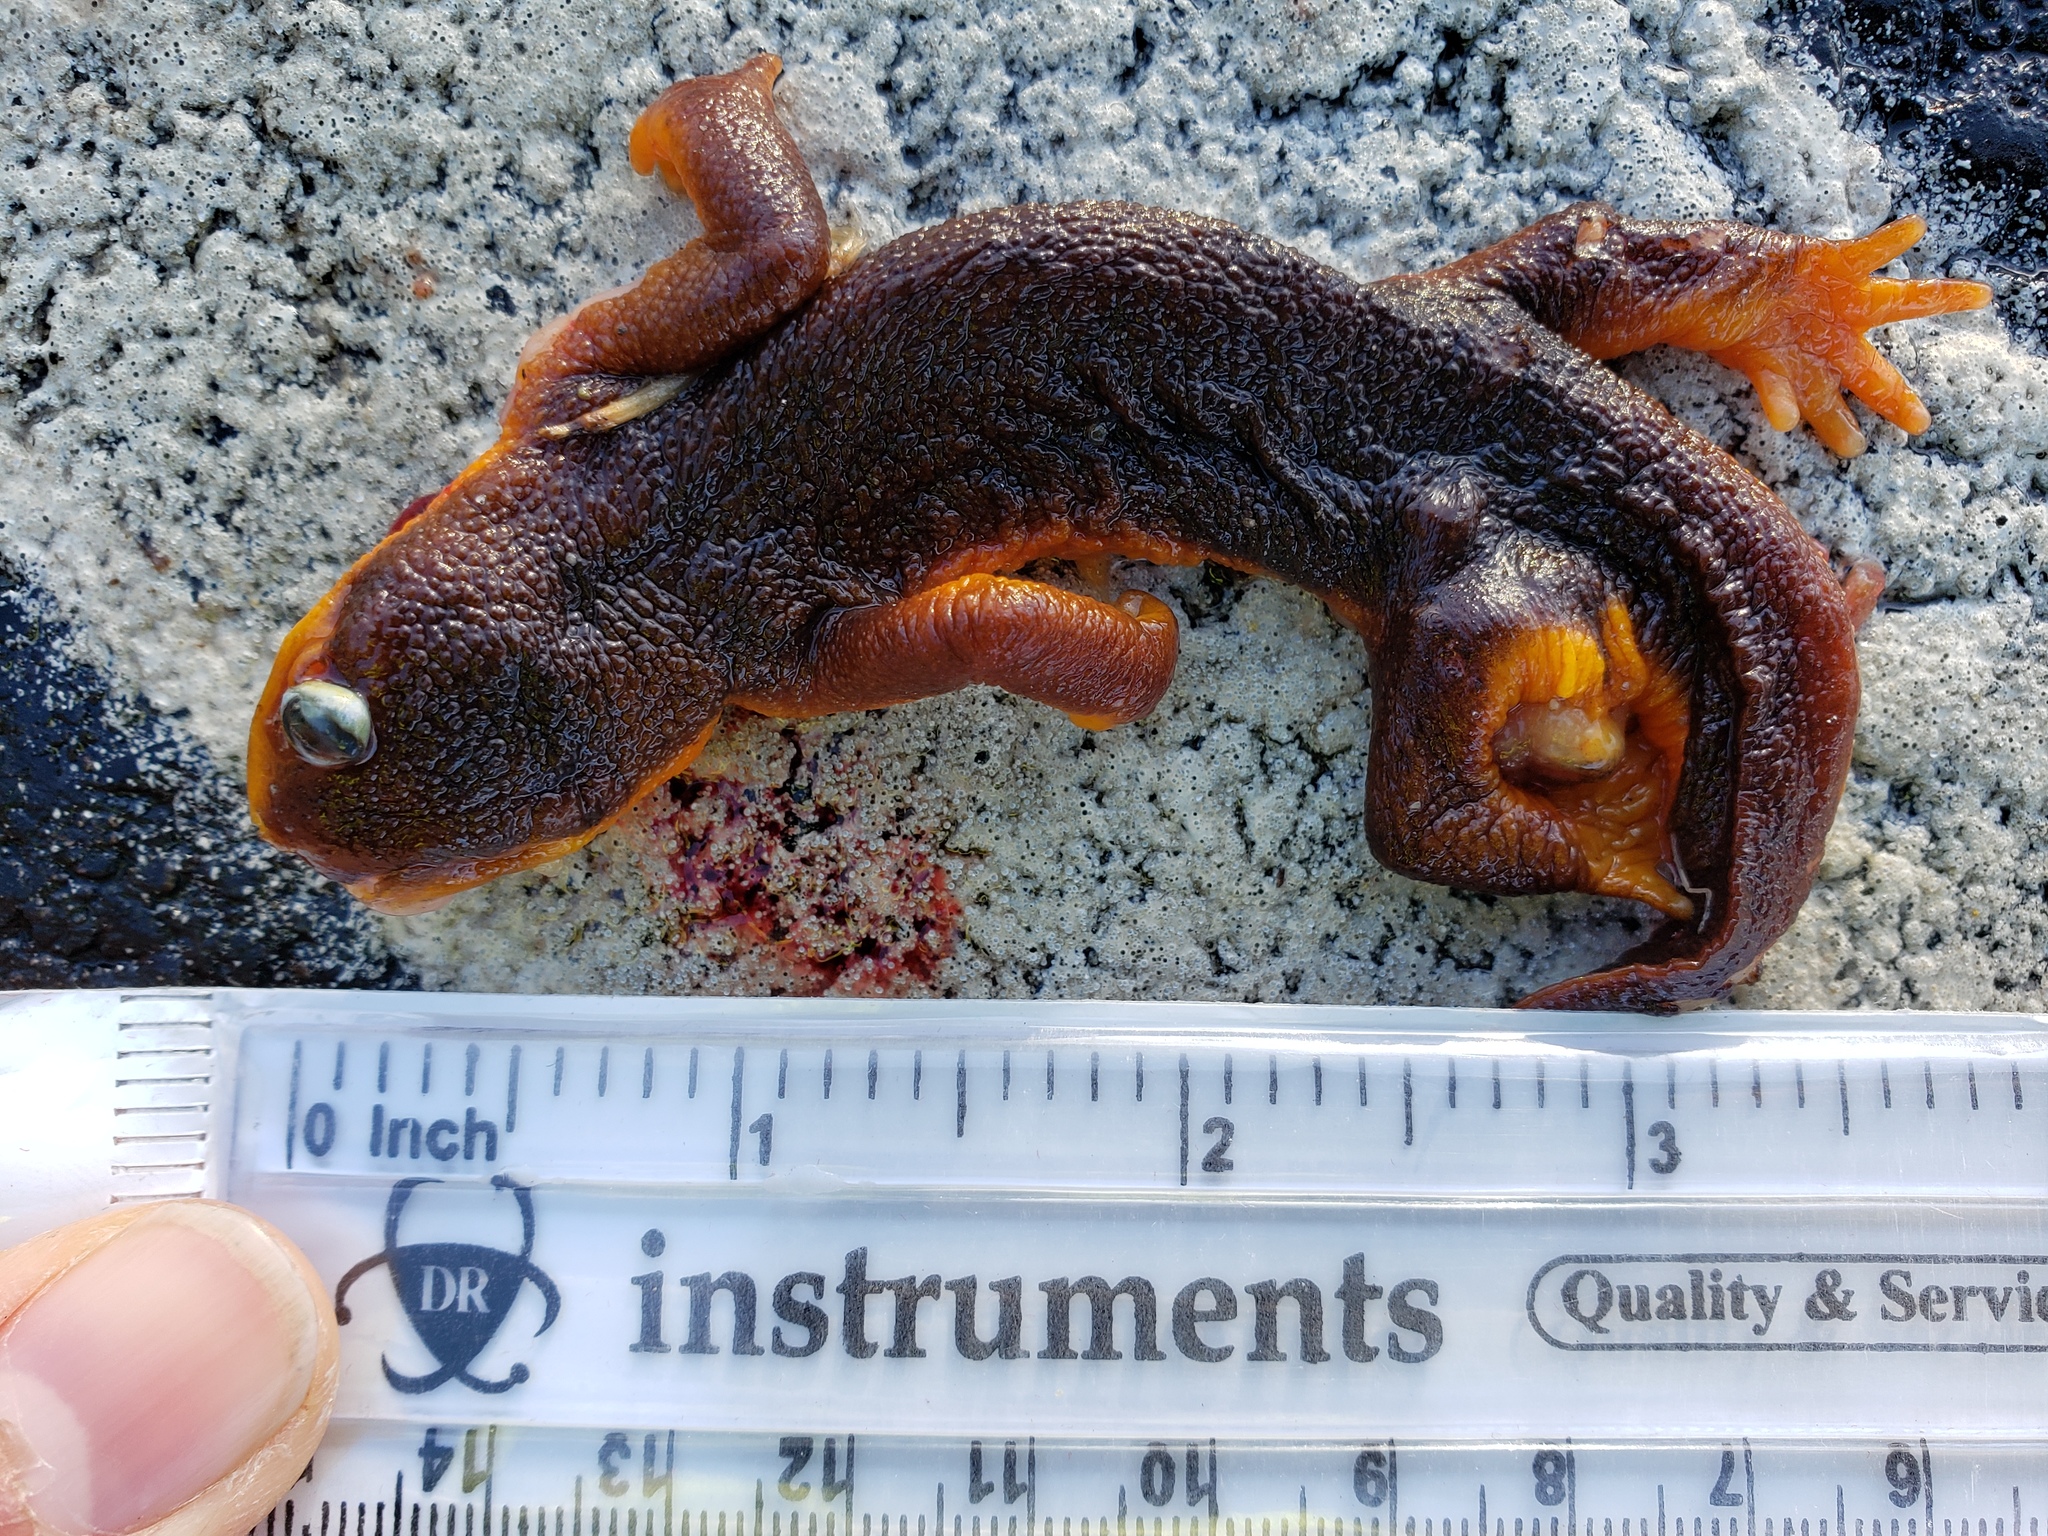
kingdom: Animalia
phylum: Chordata
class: Amphibia
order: Caudata
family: Salamandridae
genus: Taricha
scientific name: Taricha
